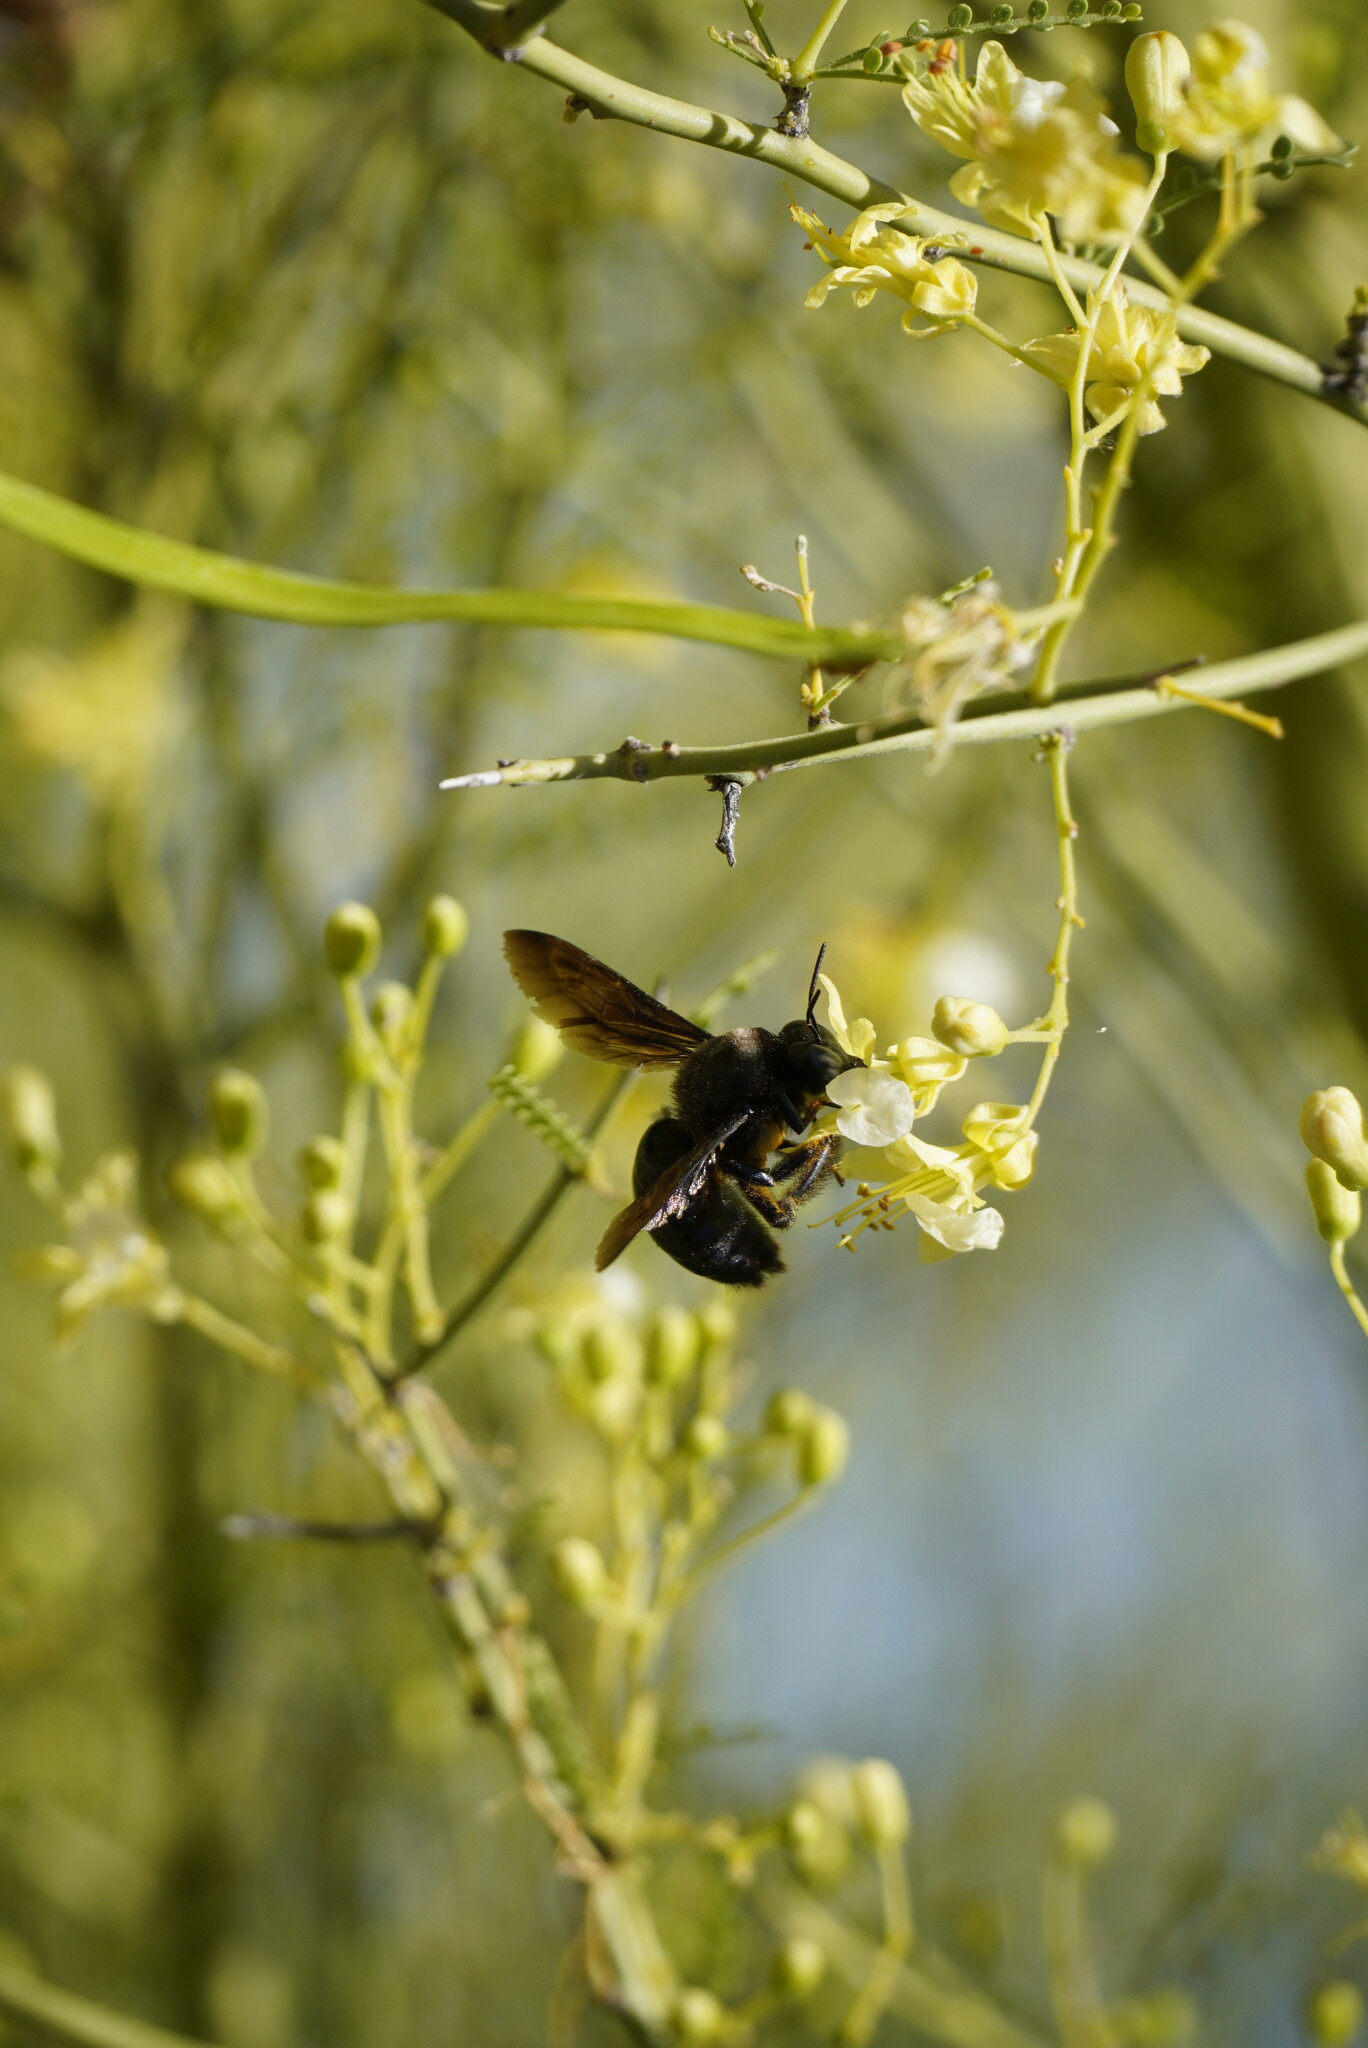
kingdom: Animalia
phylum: Arthropoda
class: Insecta
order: Hymenoptera
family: Apidae
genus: Xylocopa
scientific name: Xylocopa californica
